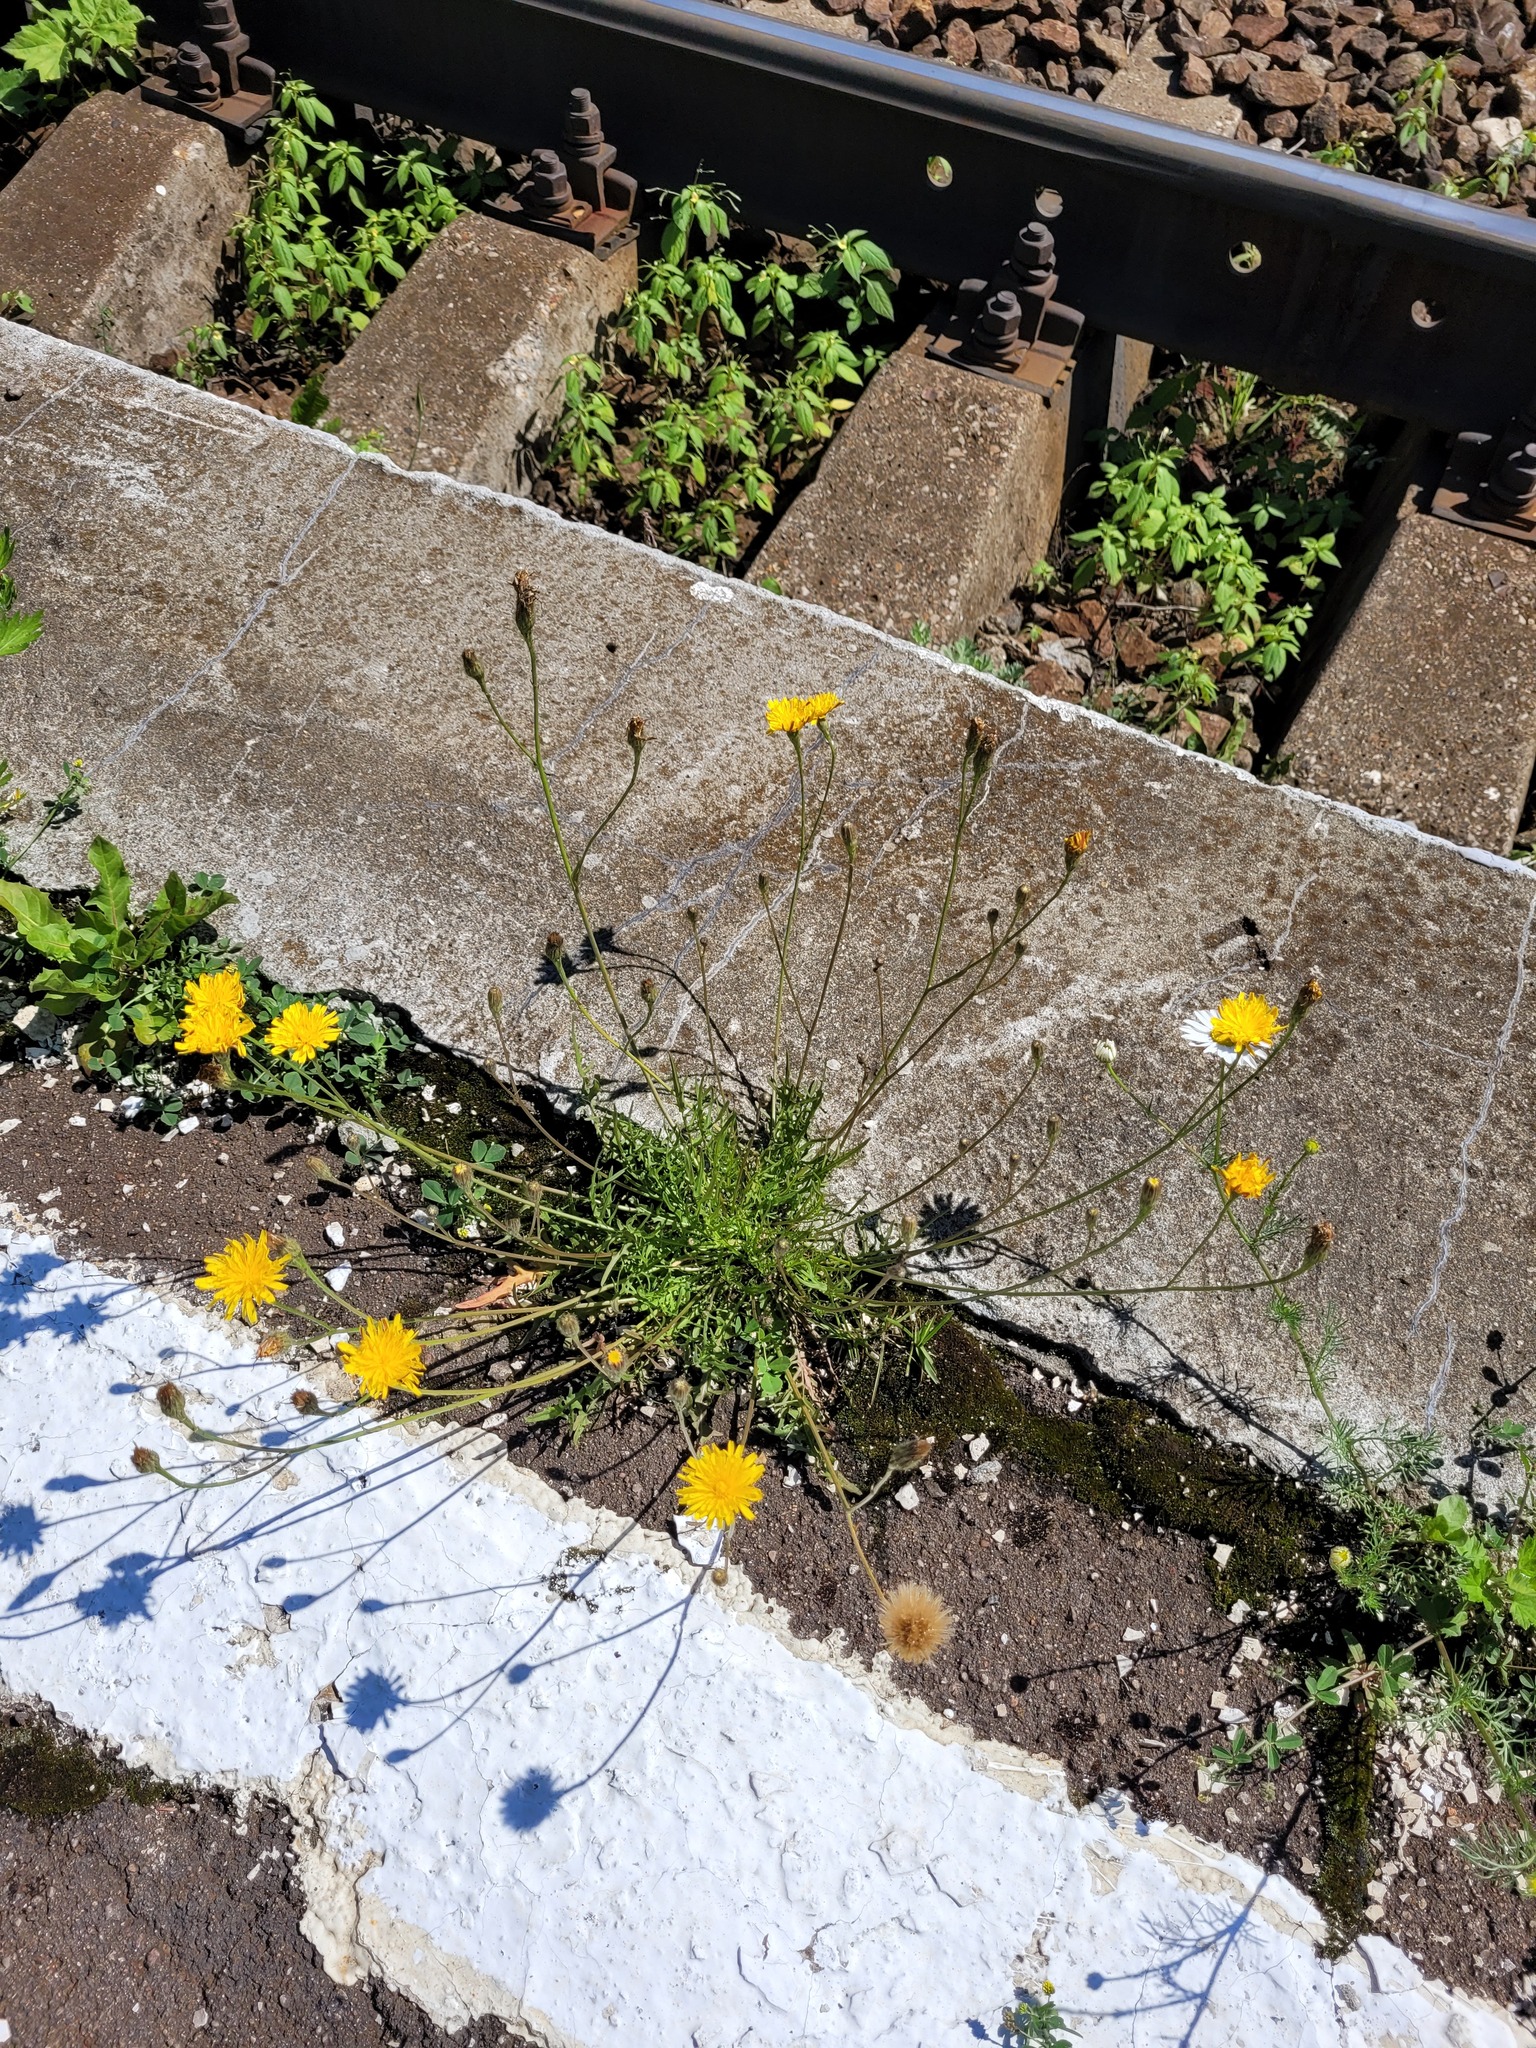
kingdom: Plantae
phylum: Tracheophyta
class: Magnoliopsida
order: Asterales
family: Asteraceae
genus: Scorzoneroides
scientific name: Scorzoneroides autumnalis
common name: Autumn hawkbit
